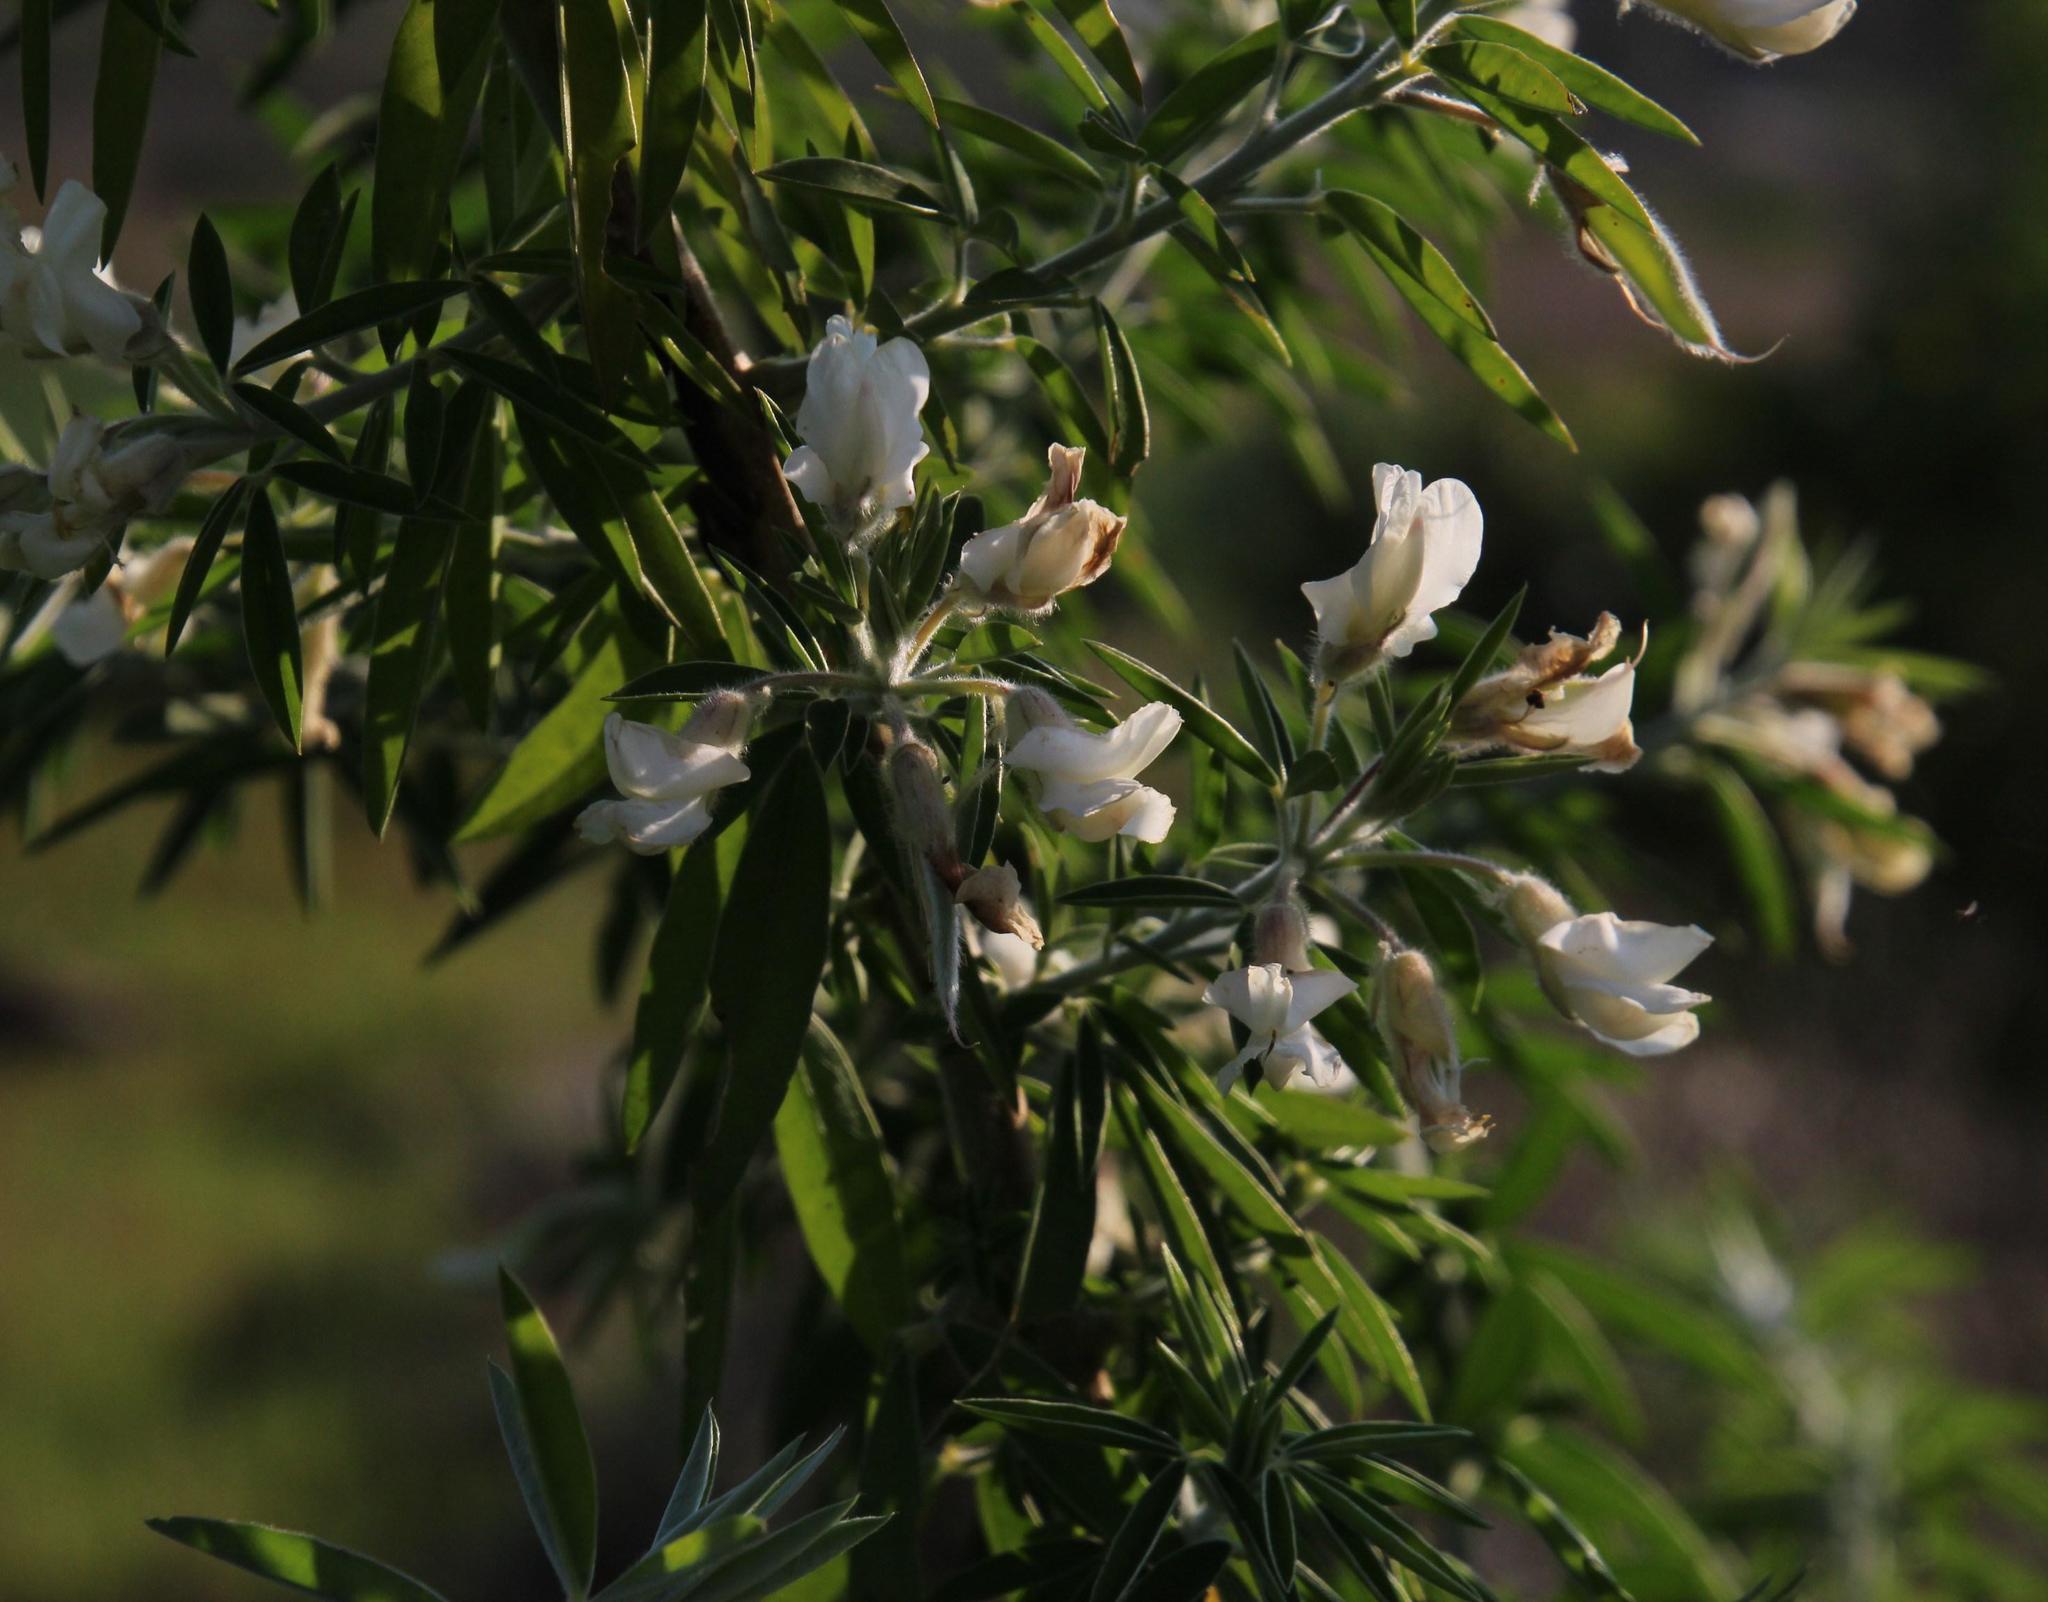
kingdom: Plantae
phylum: Tracheophyta
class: Magnoliopsida
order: Fabales
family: Fabaceae
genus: Chamaecytisus
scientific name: Chamaecytisus prolifer
